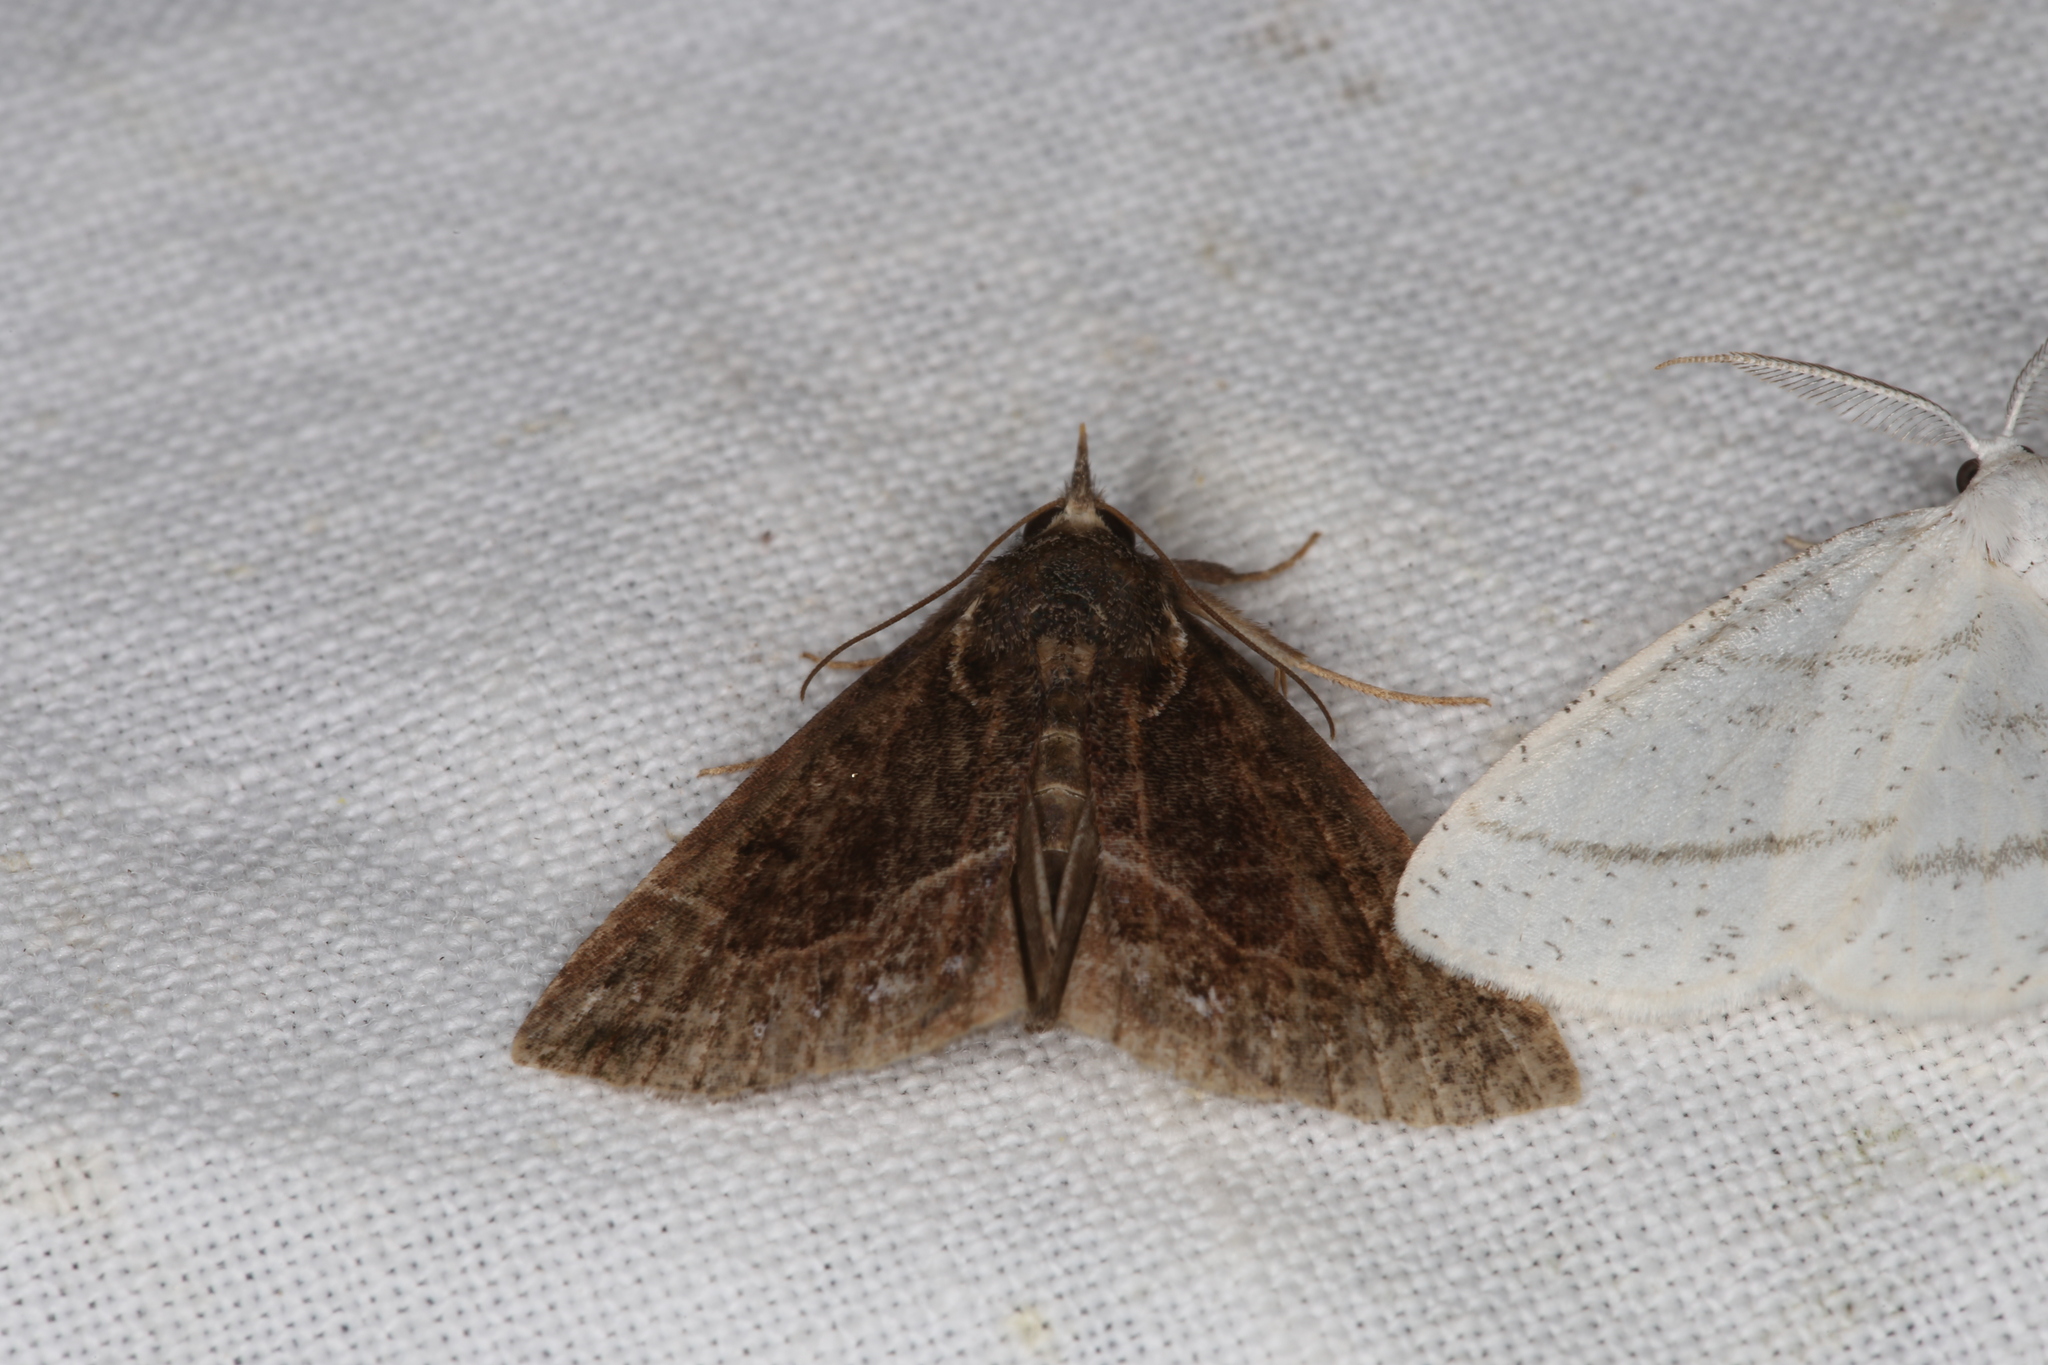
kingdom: Animalia
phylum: Arthropoda
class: Insecta
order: Lepidoptera
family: Erebidae
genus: Hypena
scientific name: Hypena crassalis
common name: Beautiful snout
